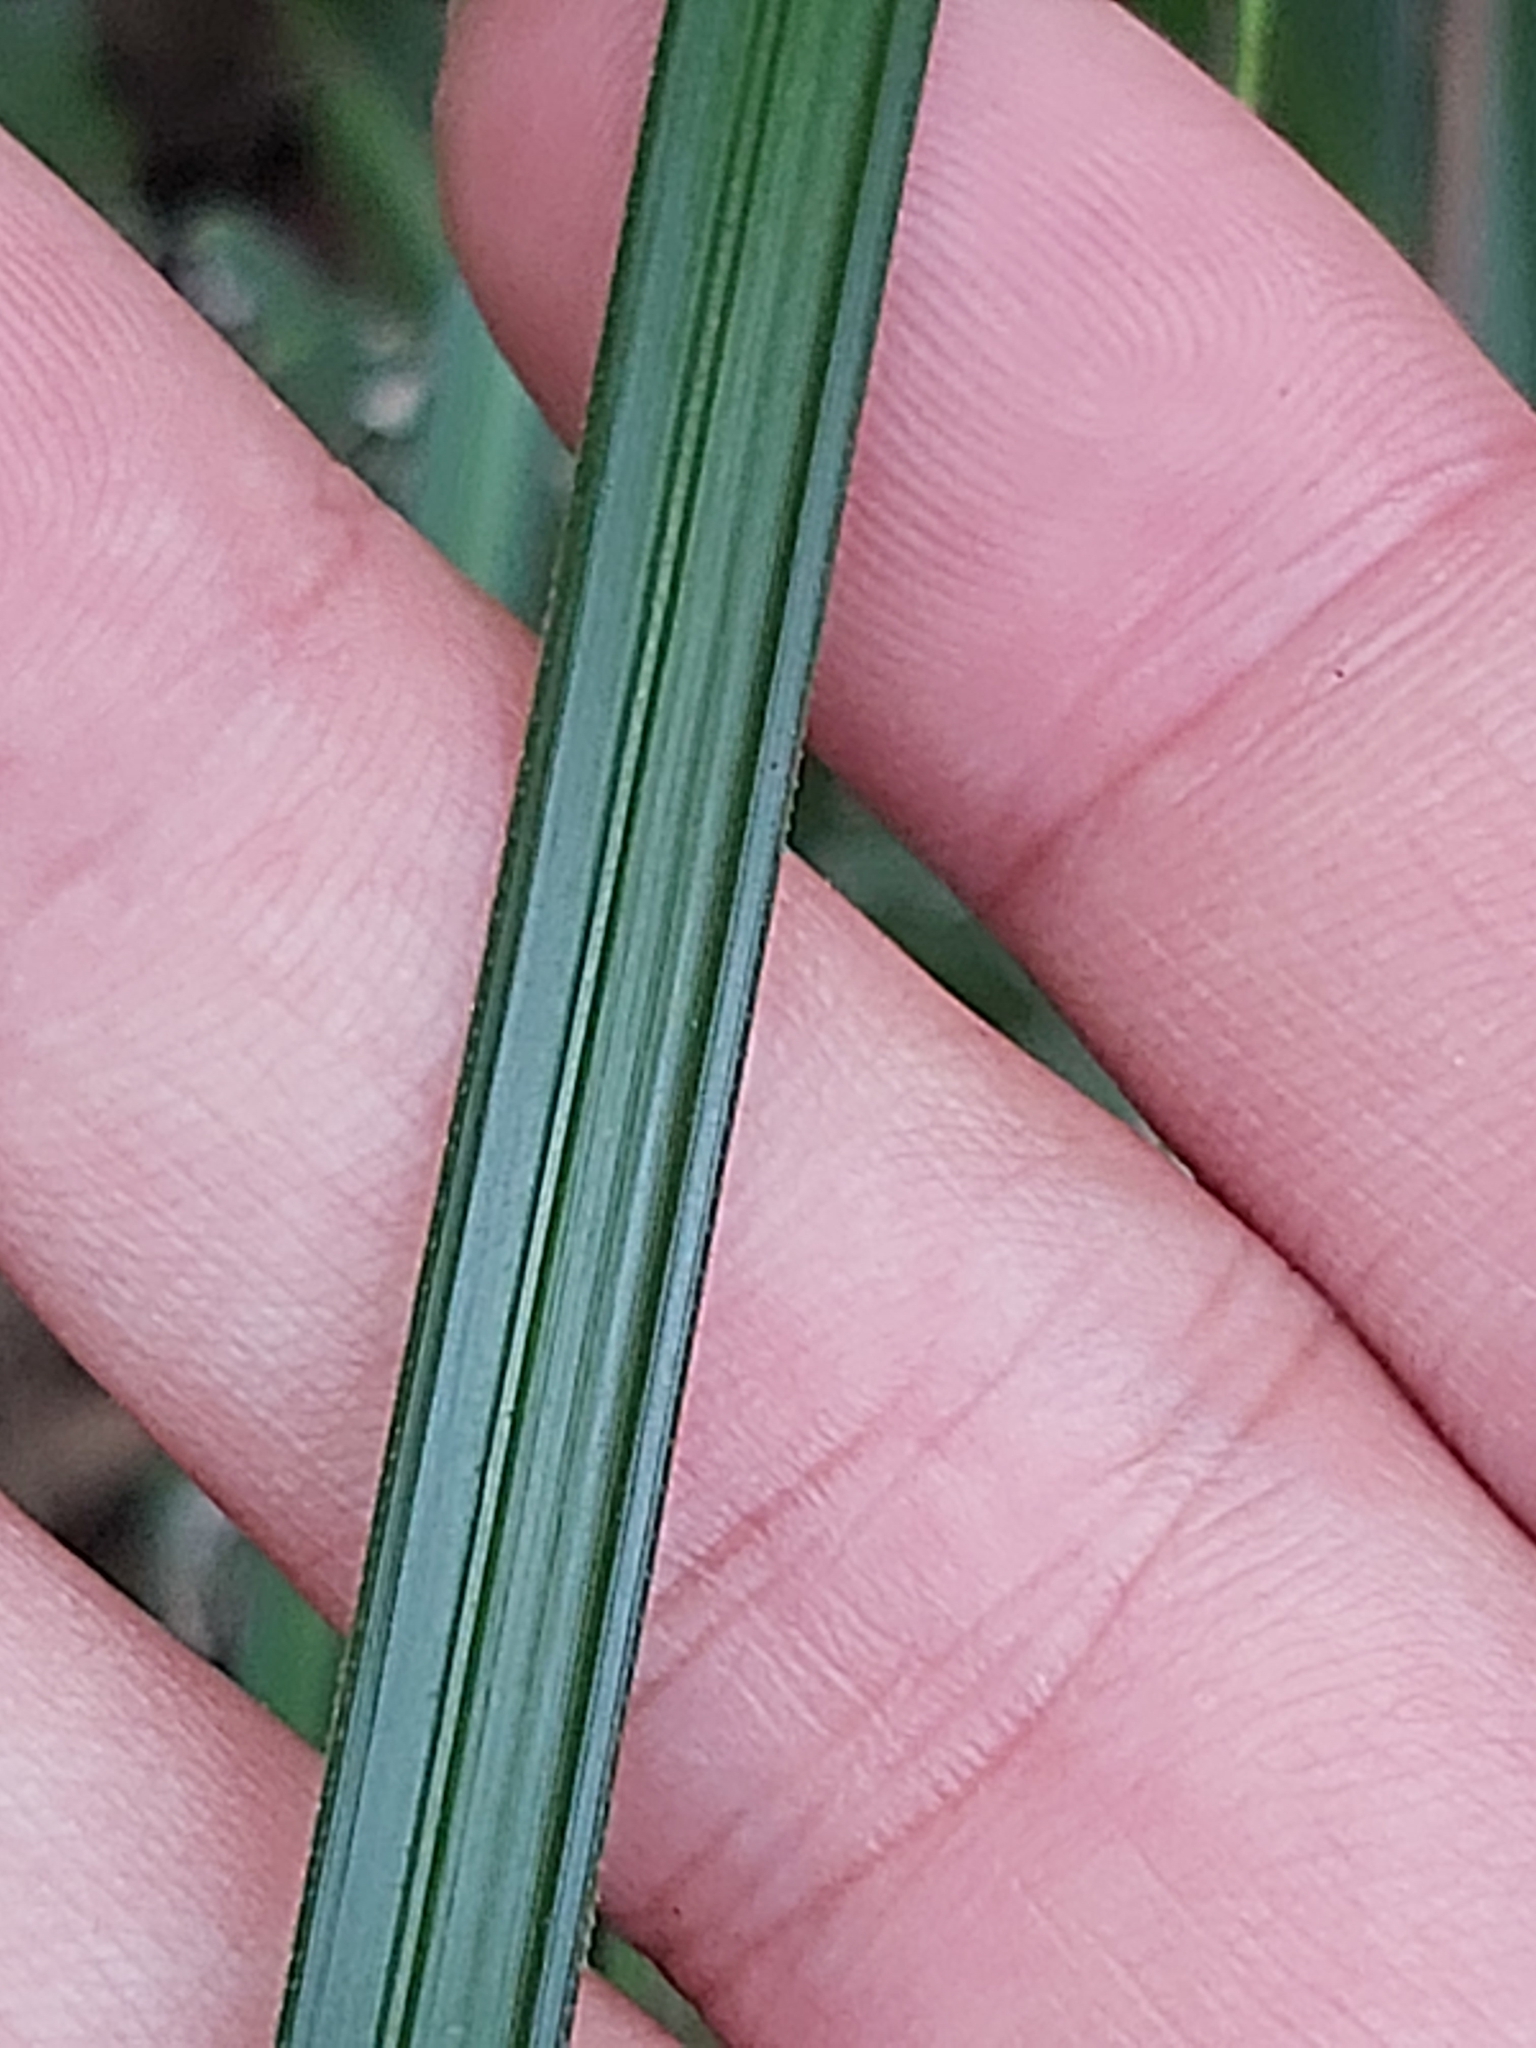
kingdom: Plantae
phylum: Tracheophyta
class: Liliopsida
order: Poales
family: Cyperaceae
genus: Gahnia
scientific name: Gahnia aspera
